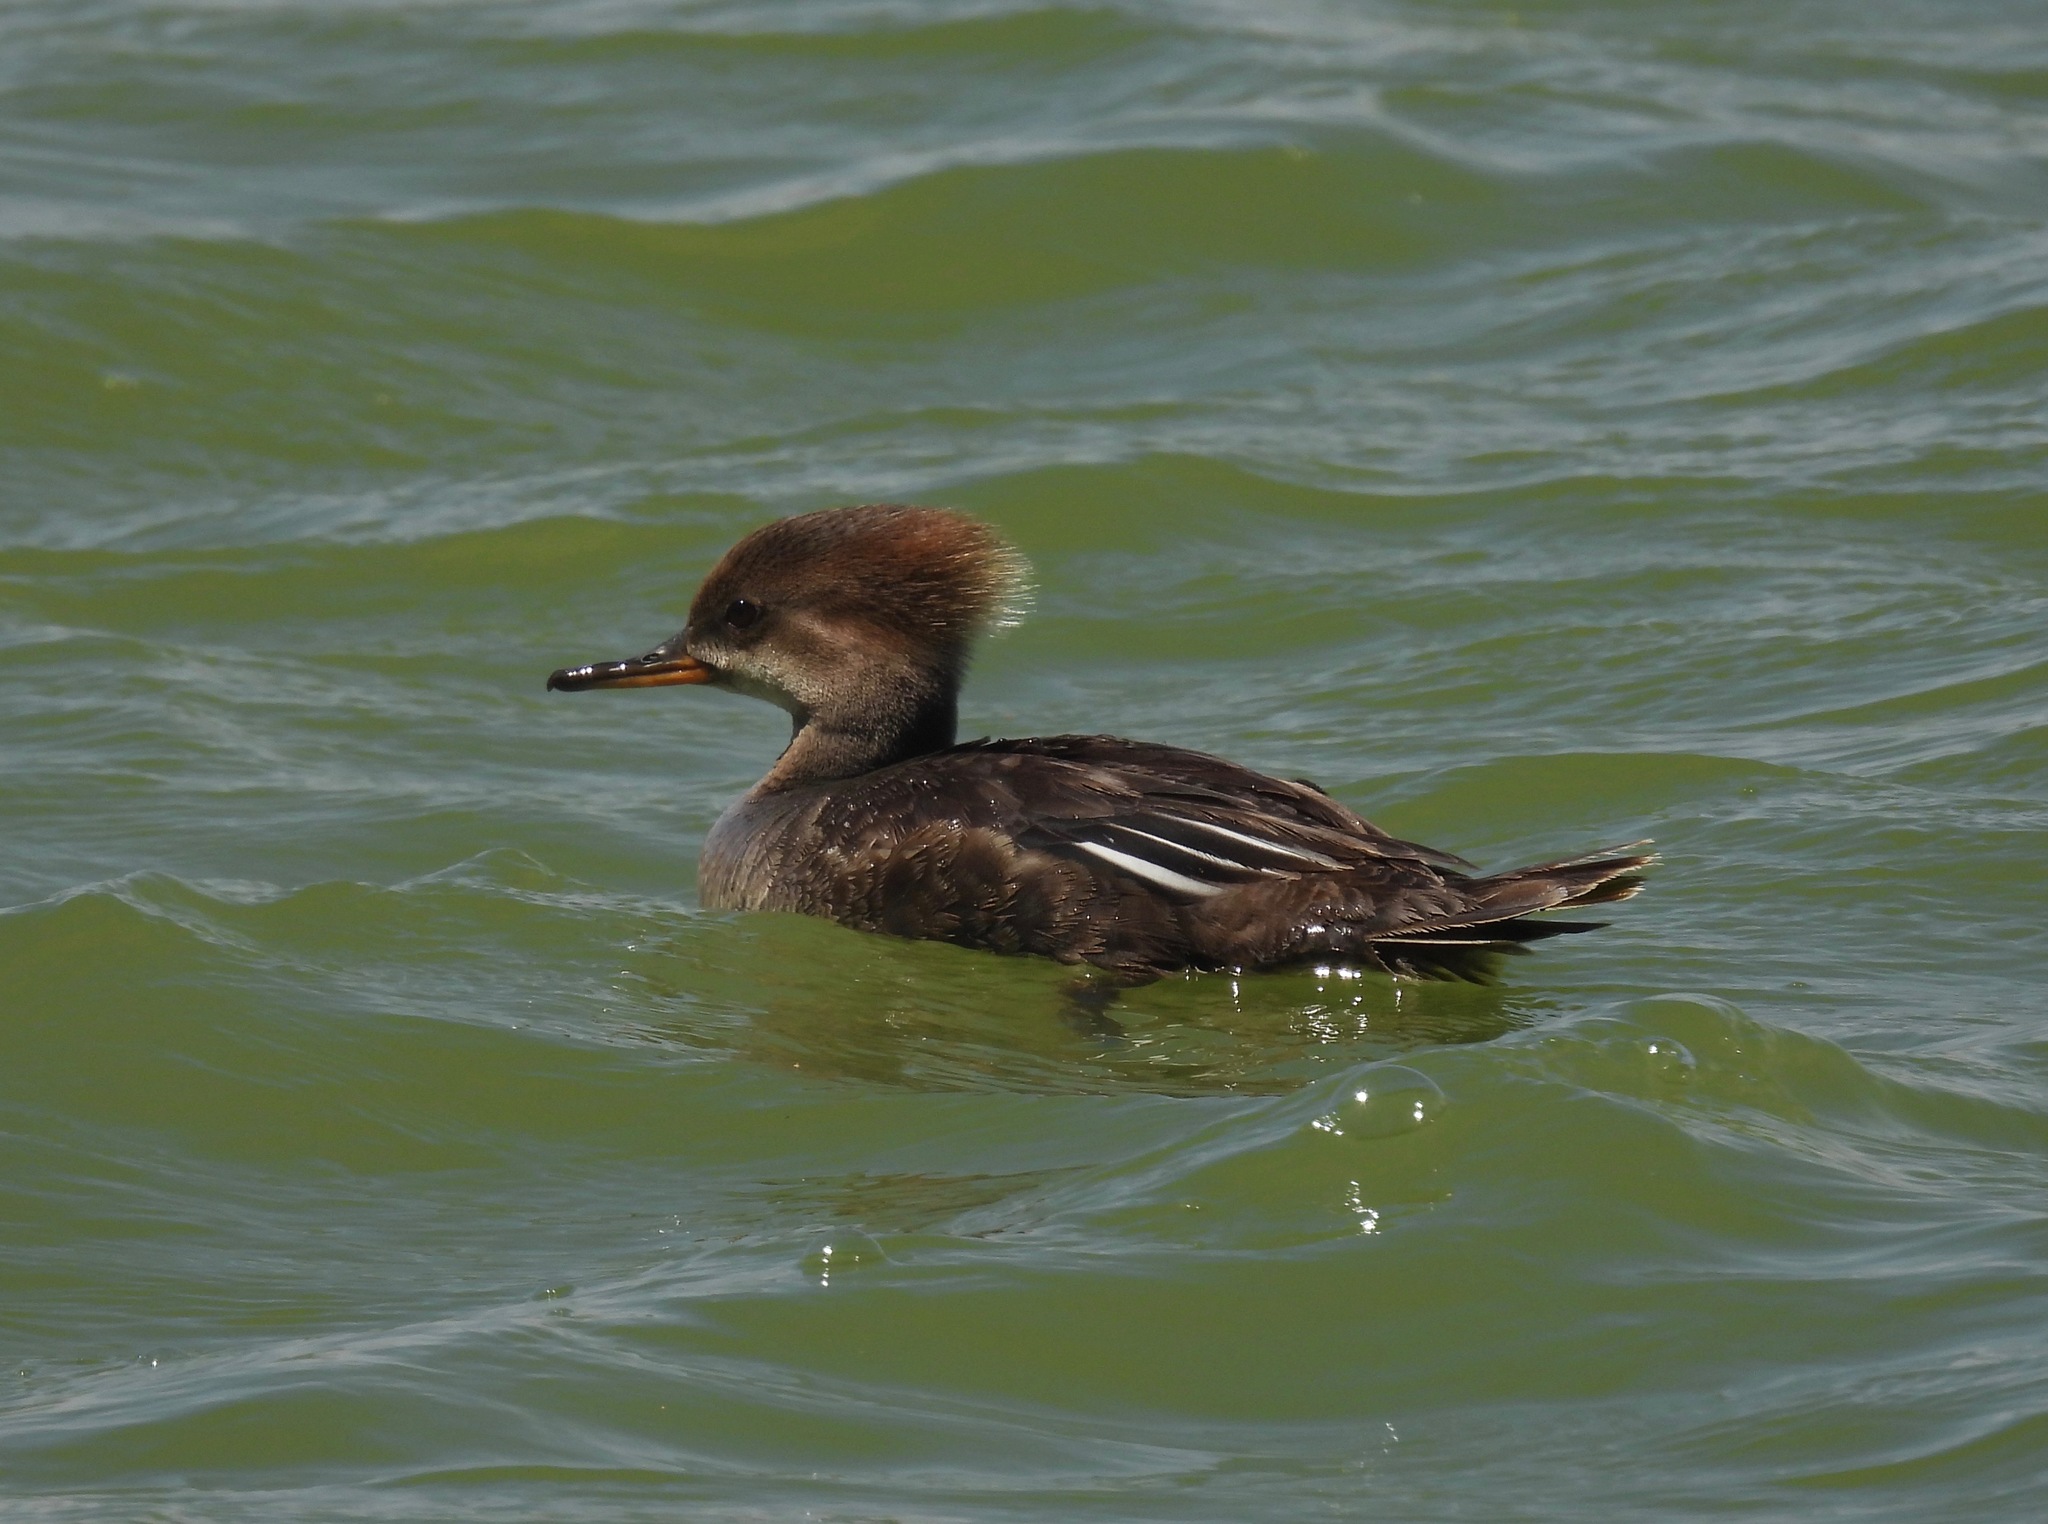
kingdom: Animalia
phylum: Chordata
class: Aves
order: Anseriformes
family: Anatidae
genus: Lophodytes
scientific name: Lophodytes cucullatus
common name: Hooded merganser
